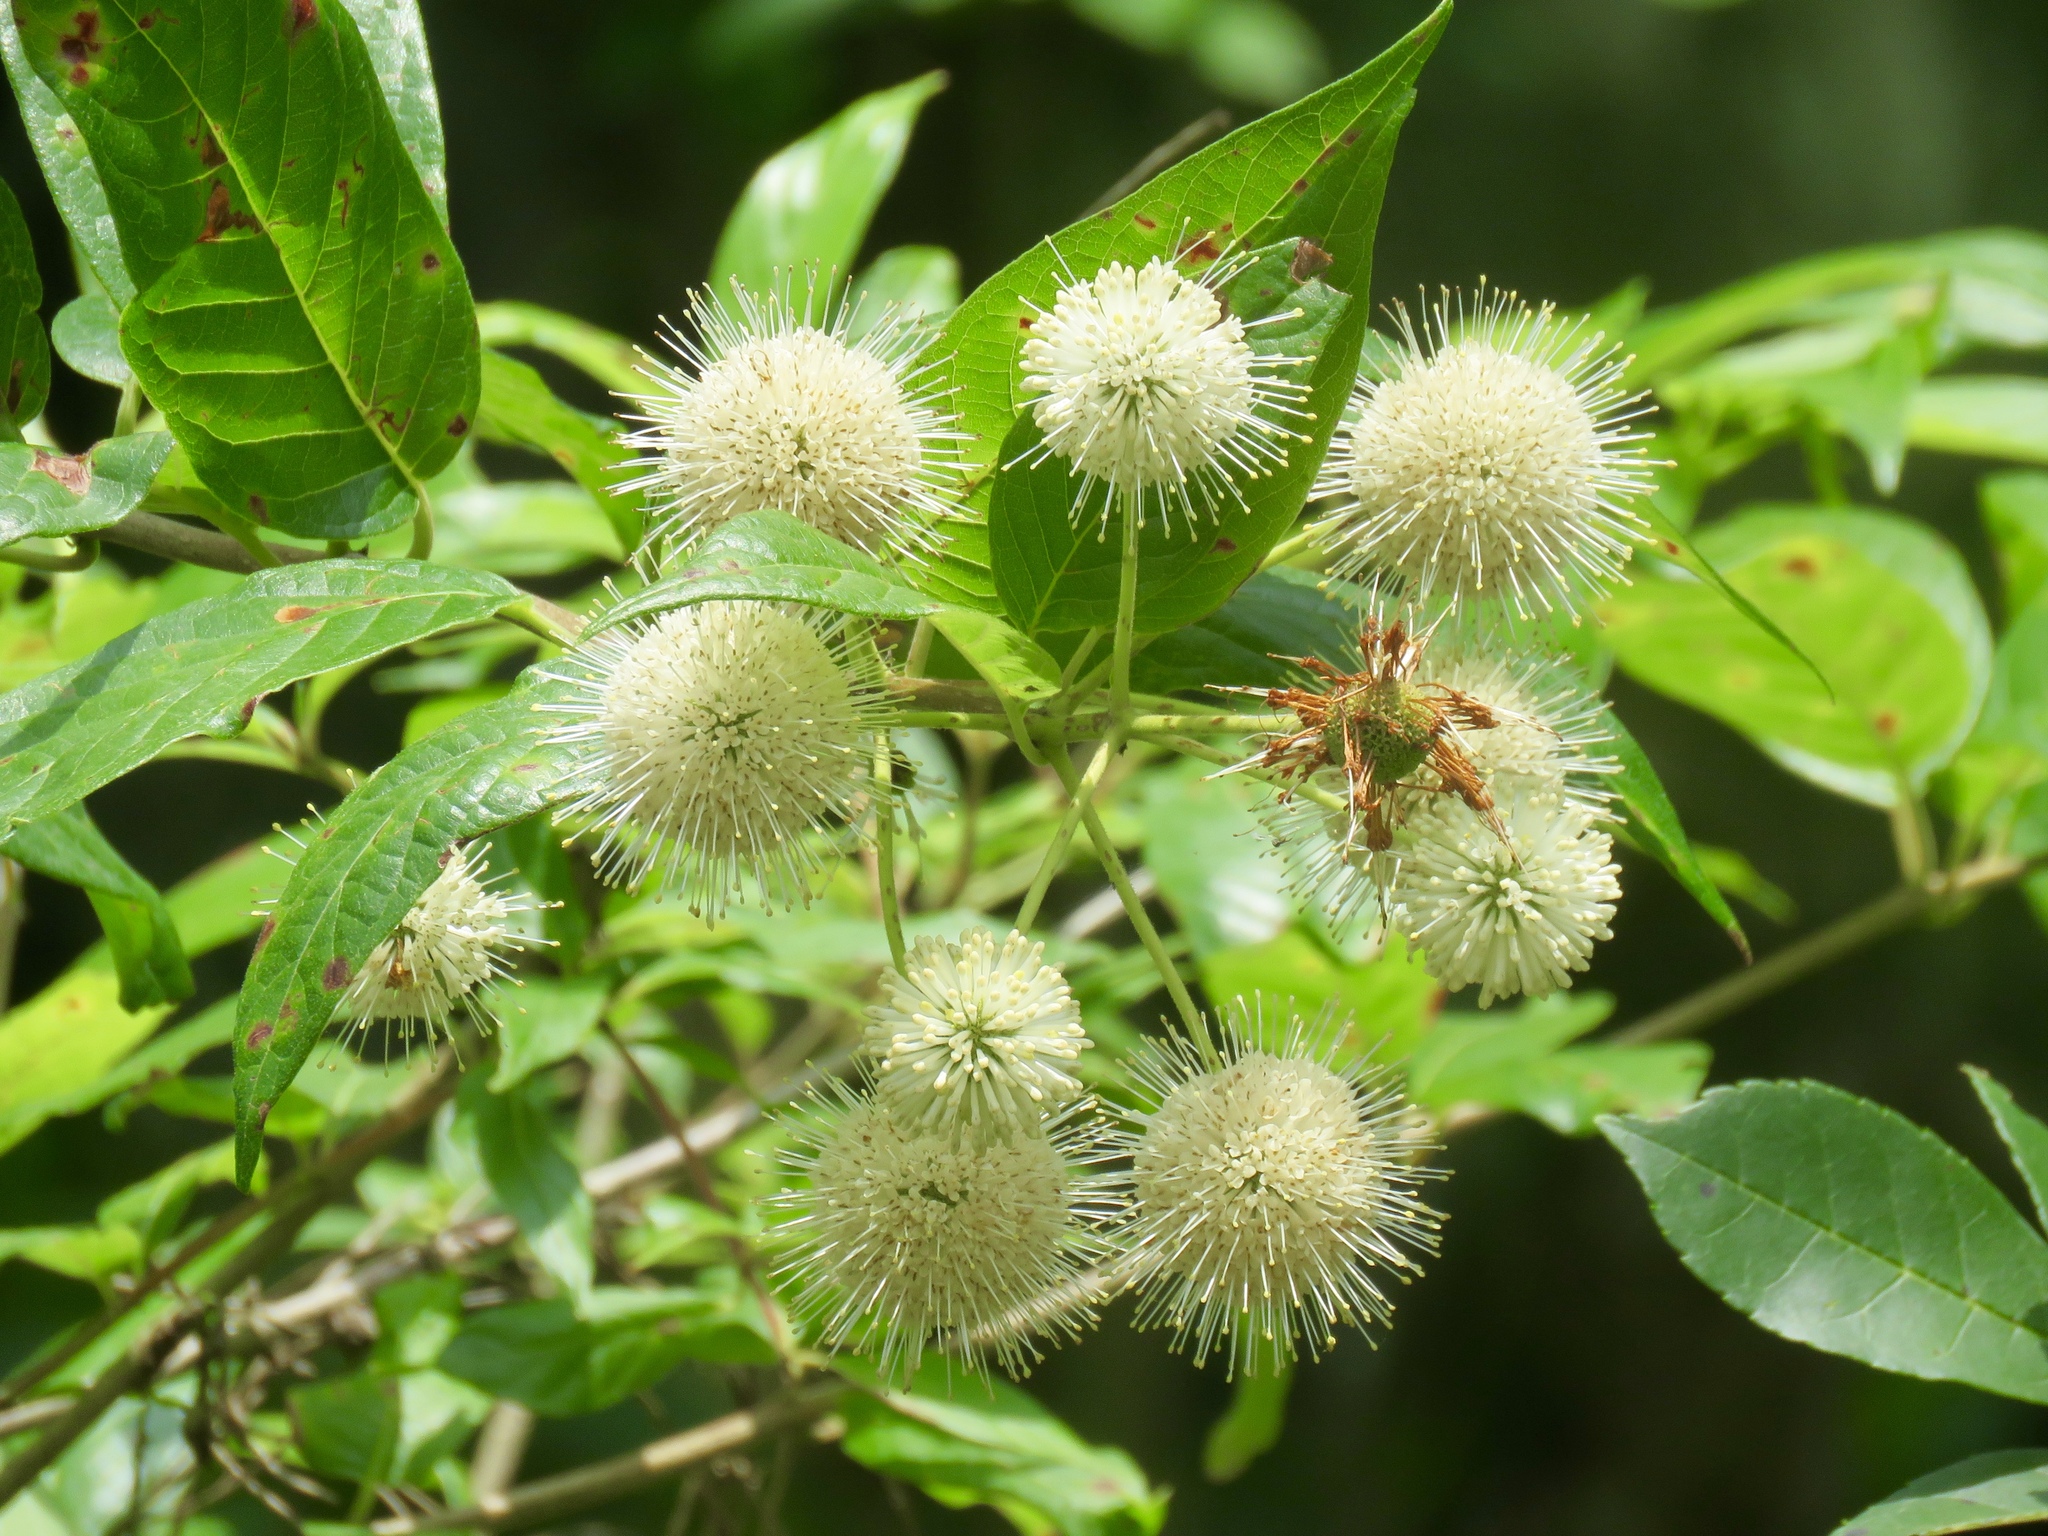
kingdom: Plantae
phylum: Tracheophyta
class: Magnoliopsida
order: Gentianales
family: Rubiaceae
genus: Cephalanthus
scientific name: Cephalanthus occidentalis
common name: Button-willow
